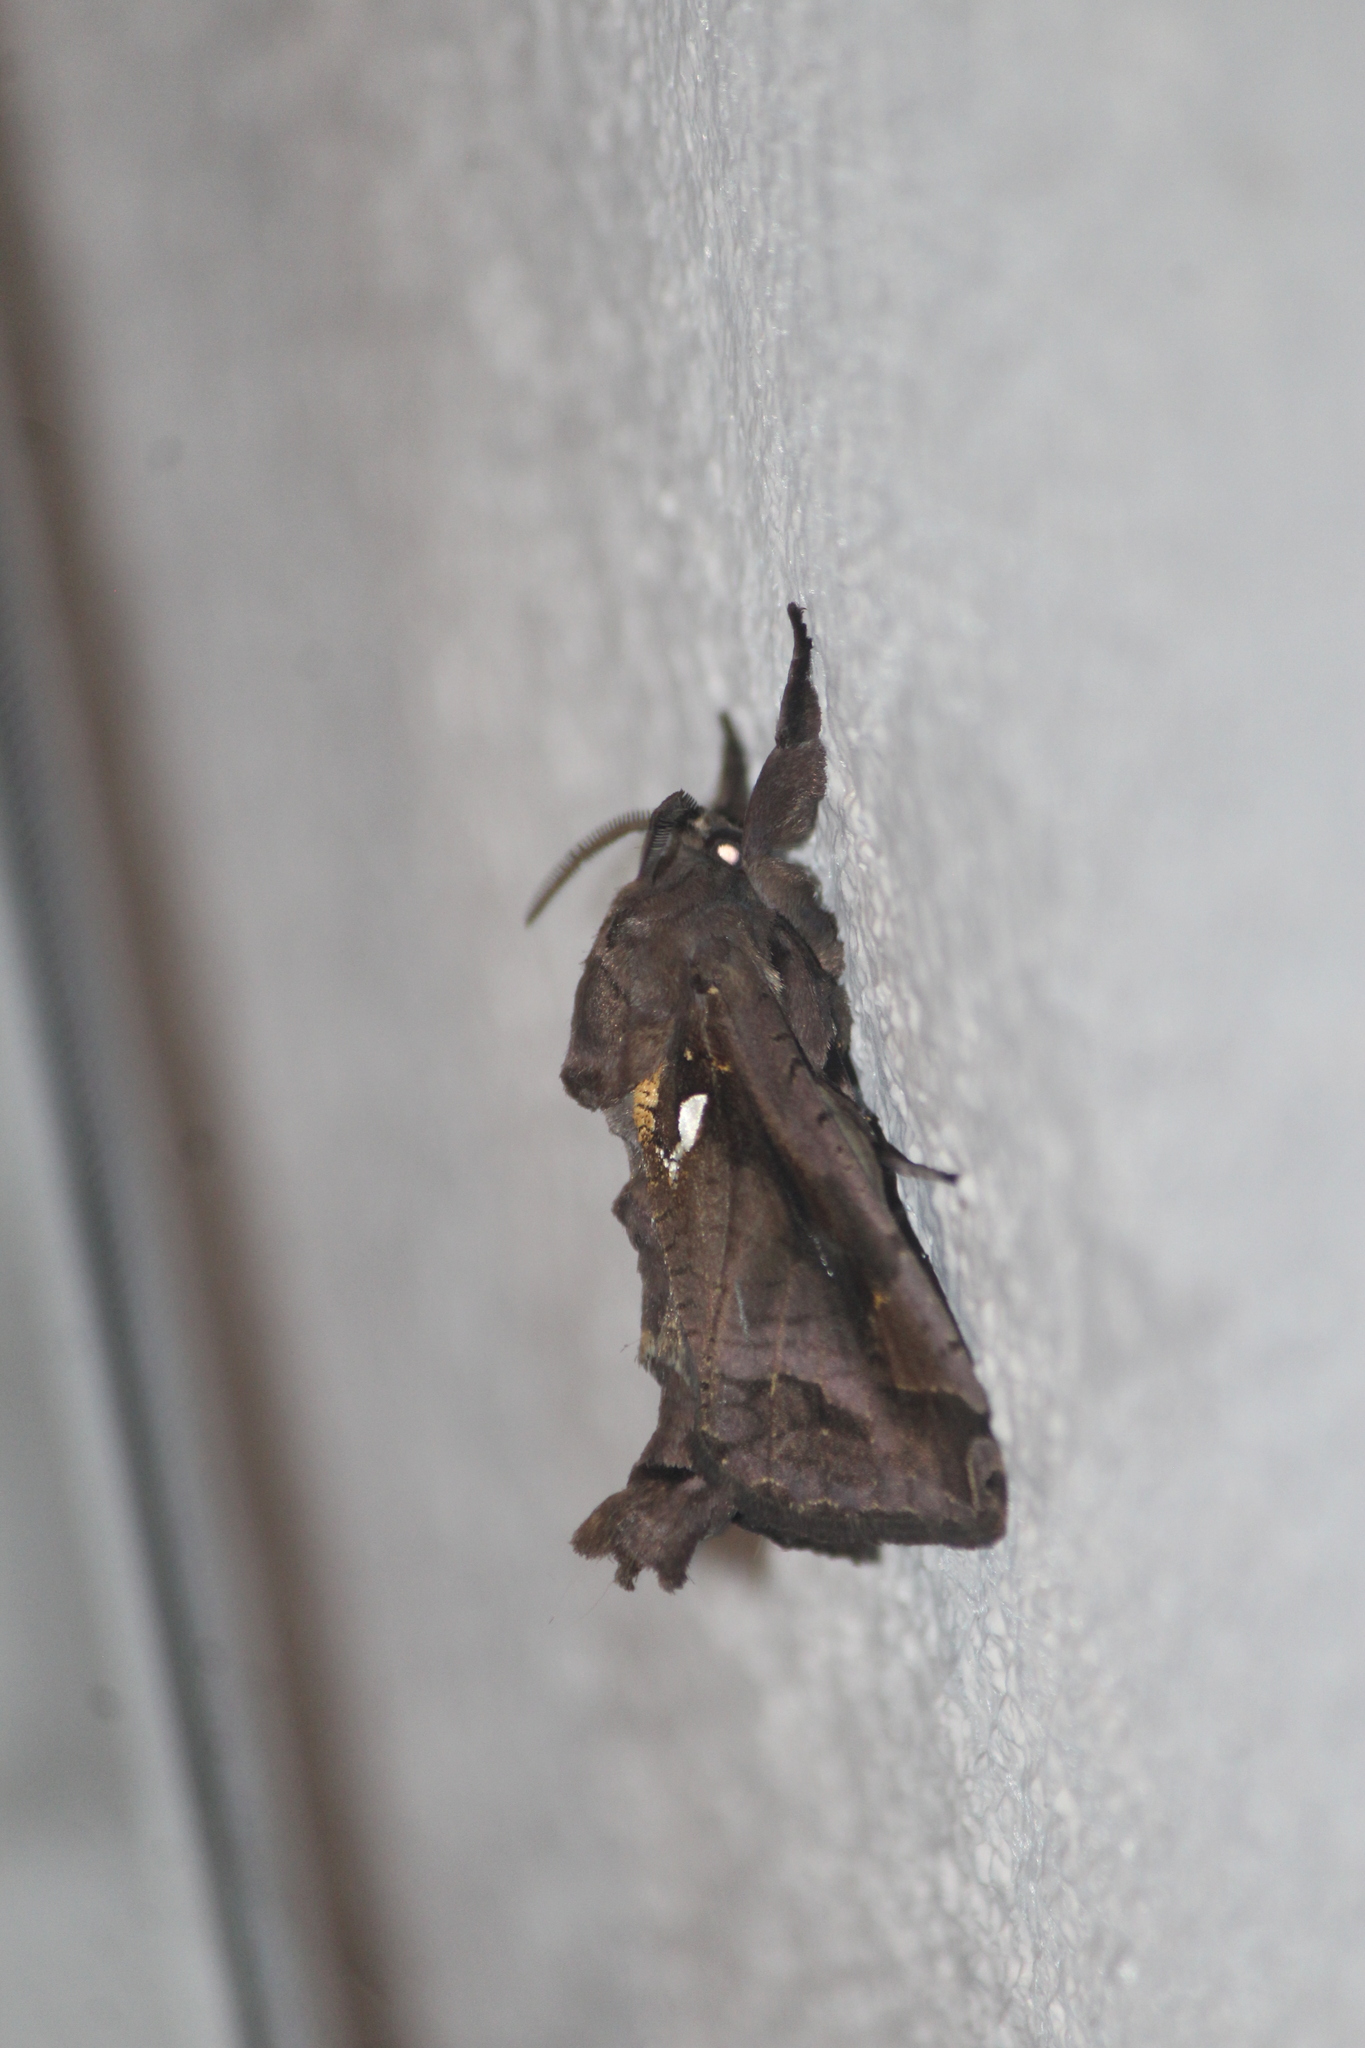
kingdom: Animalia
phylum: Arthropoda
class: Insecta
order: Lepidoptera
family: Cossidae
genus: Langsdorfia
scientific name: Langsdorfia franckii
